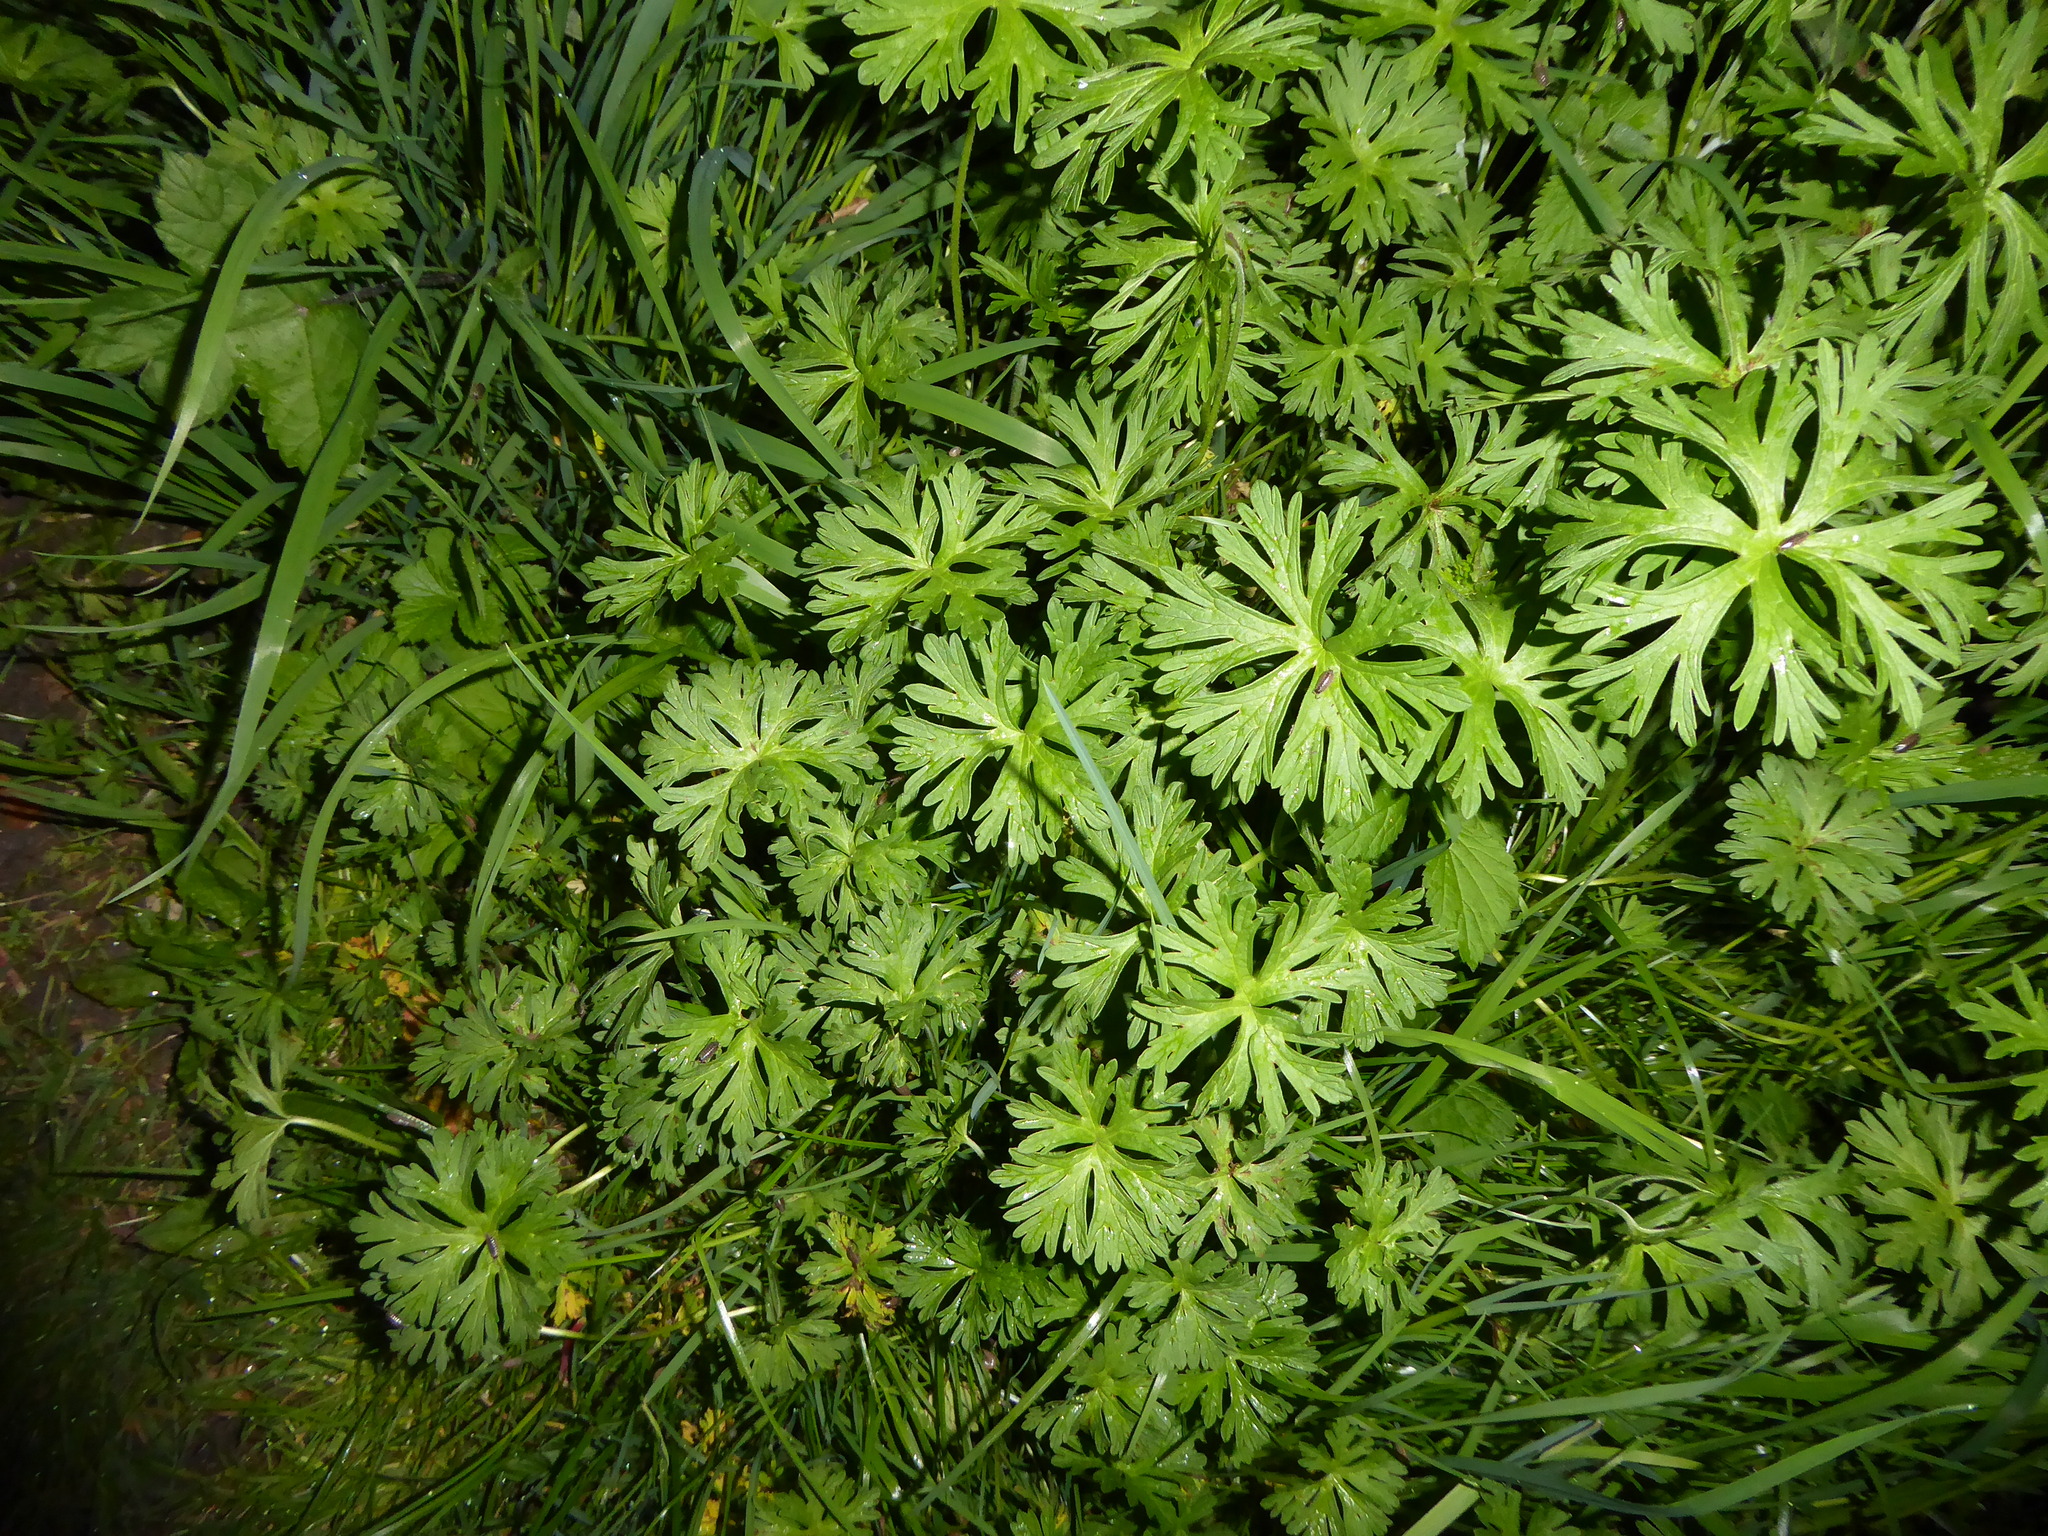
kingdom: Plantae
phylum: Tracheophyta
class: Magnoliopsida
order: Geraniales
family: Geraniaceae
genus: Geranium
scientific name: Geranium dissectum
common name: Cut-leaved crane's-bill
